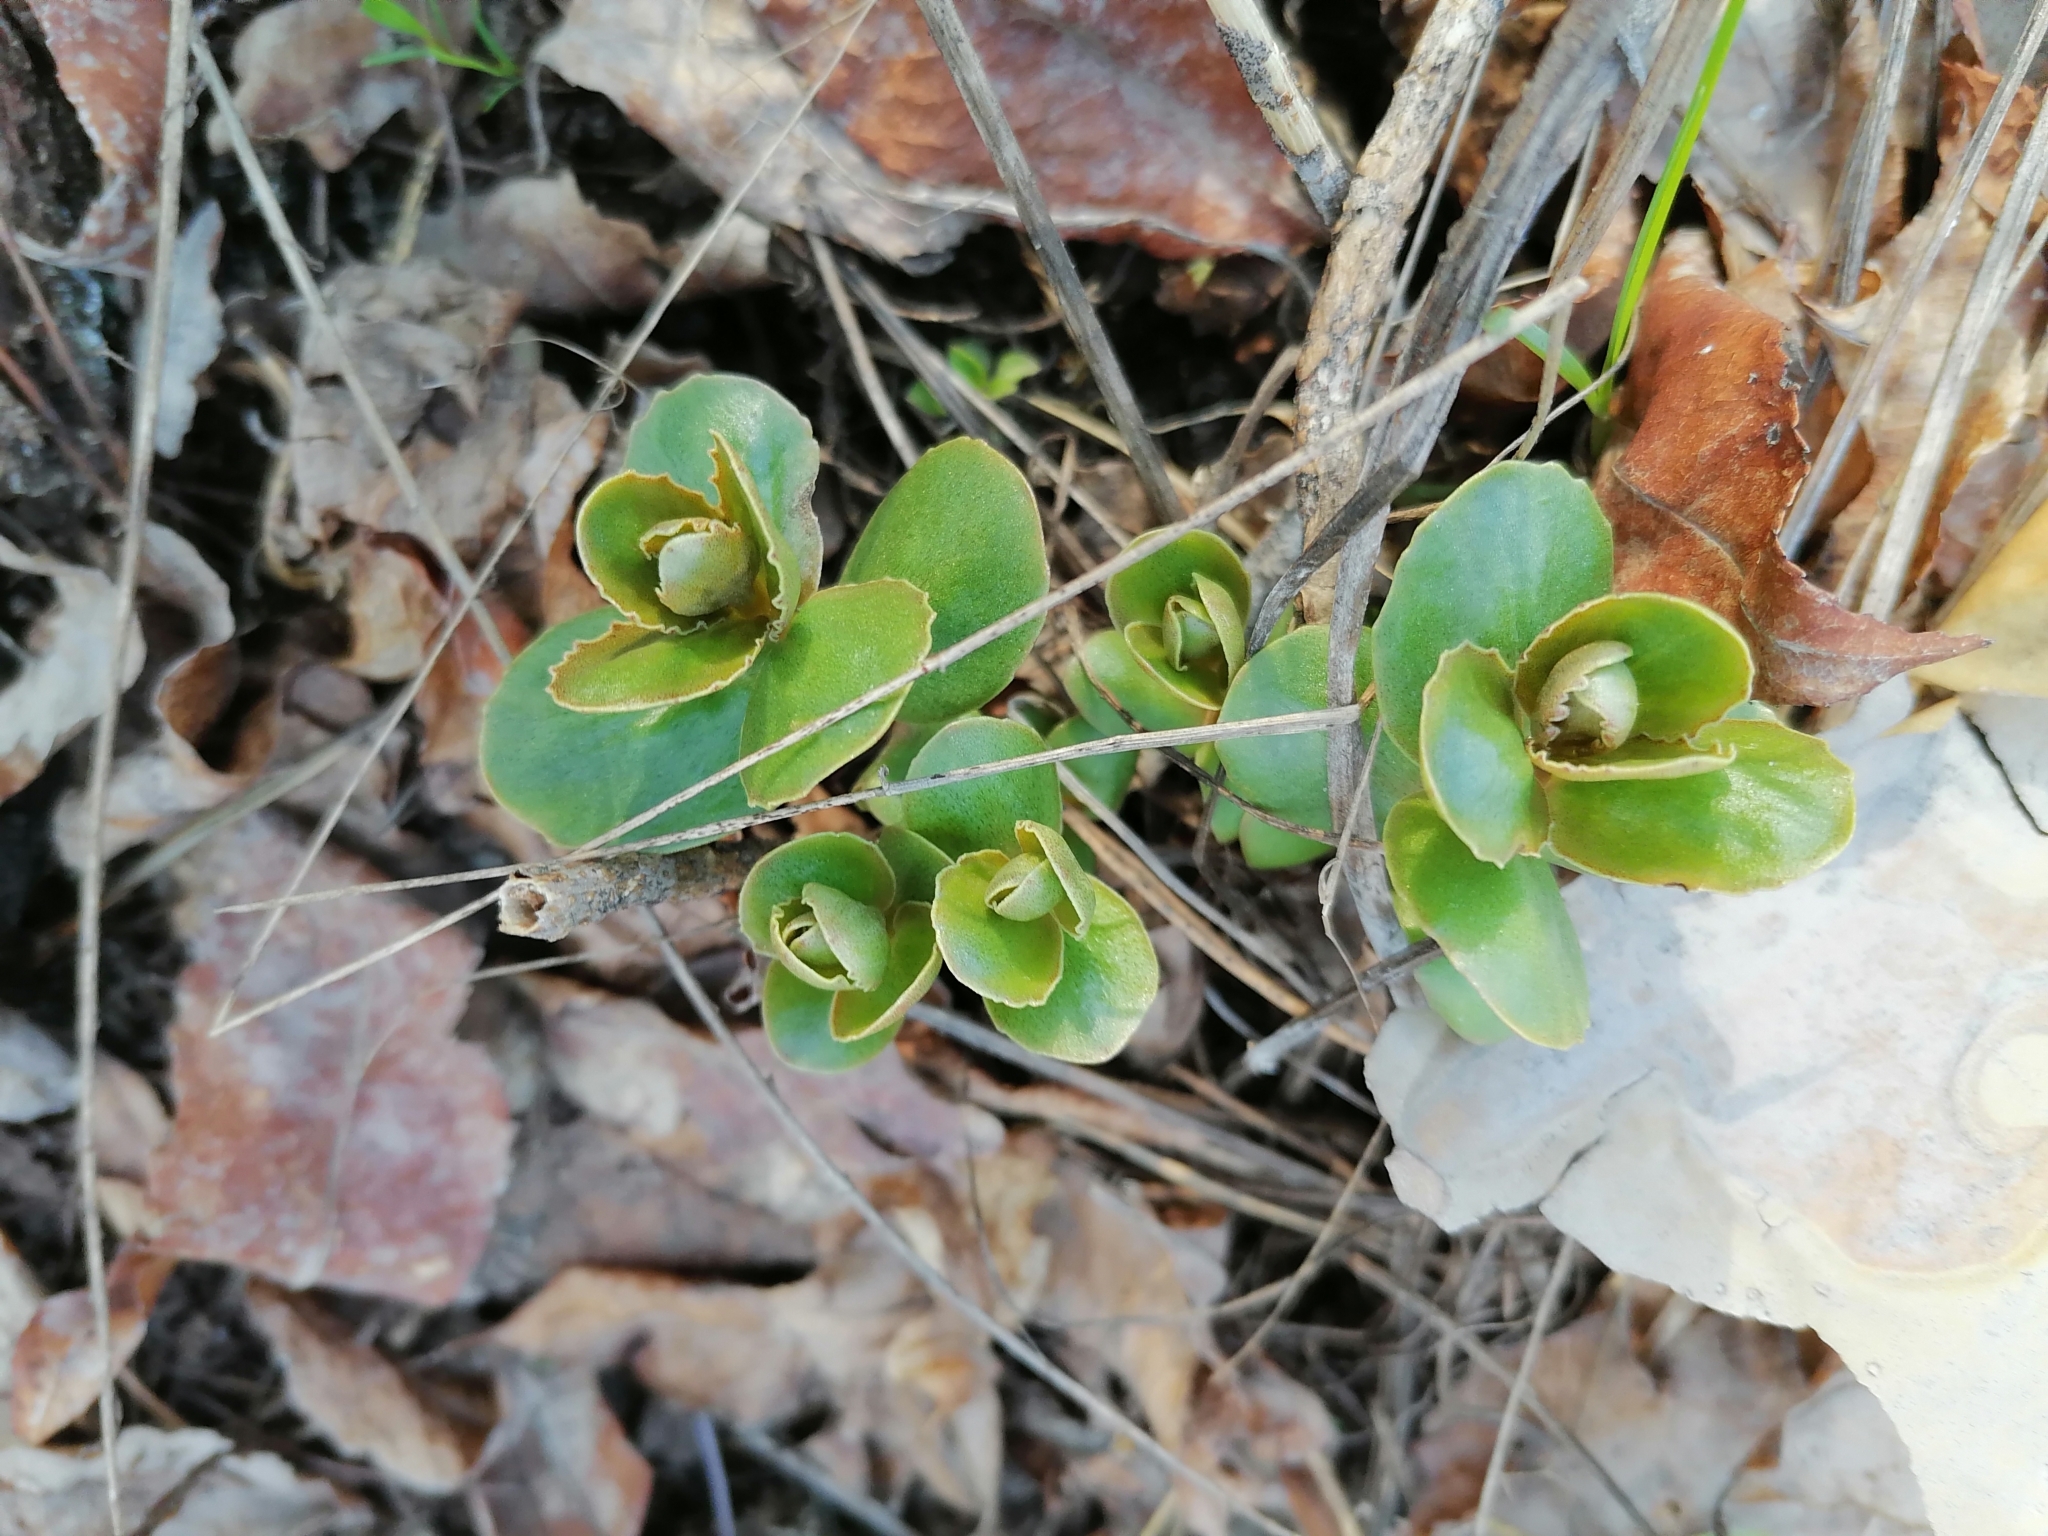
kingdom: Plantae
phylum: Tracheophyta
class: Magnoliopsida
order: Saxifragales
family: Crassulaceae
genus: Hylotelephium
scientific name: Hylotelephium maximum
